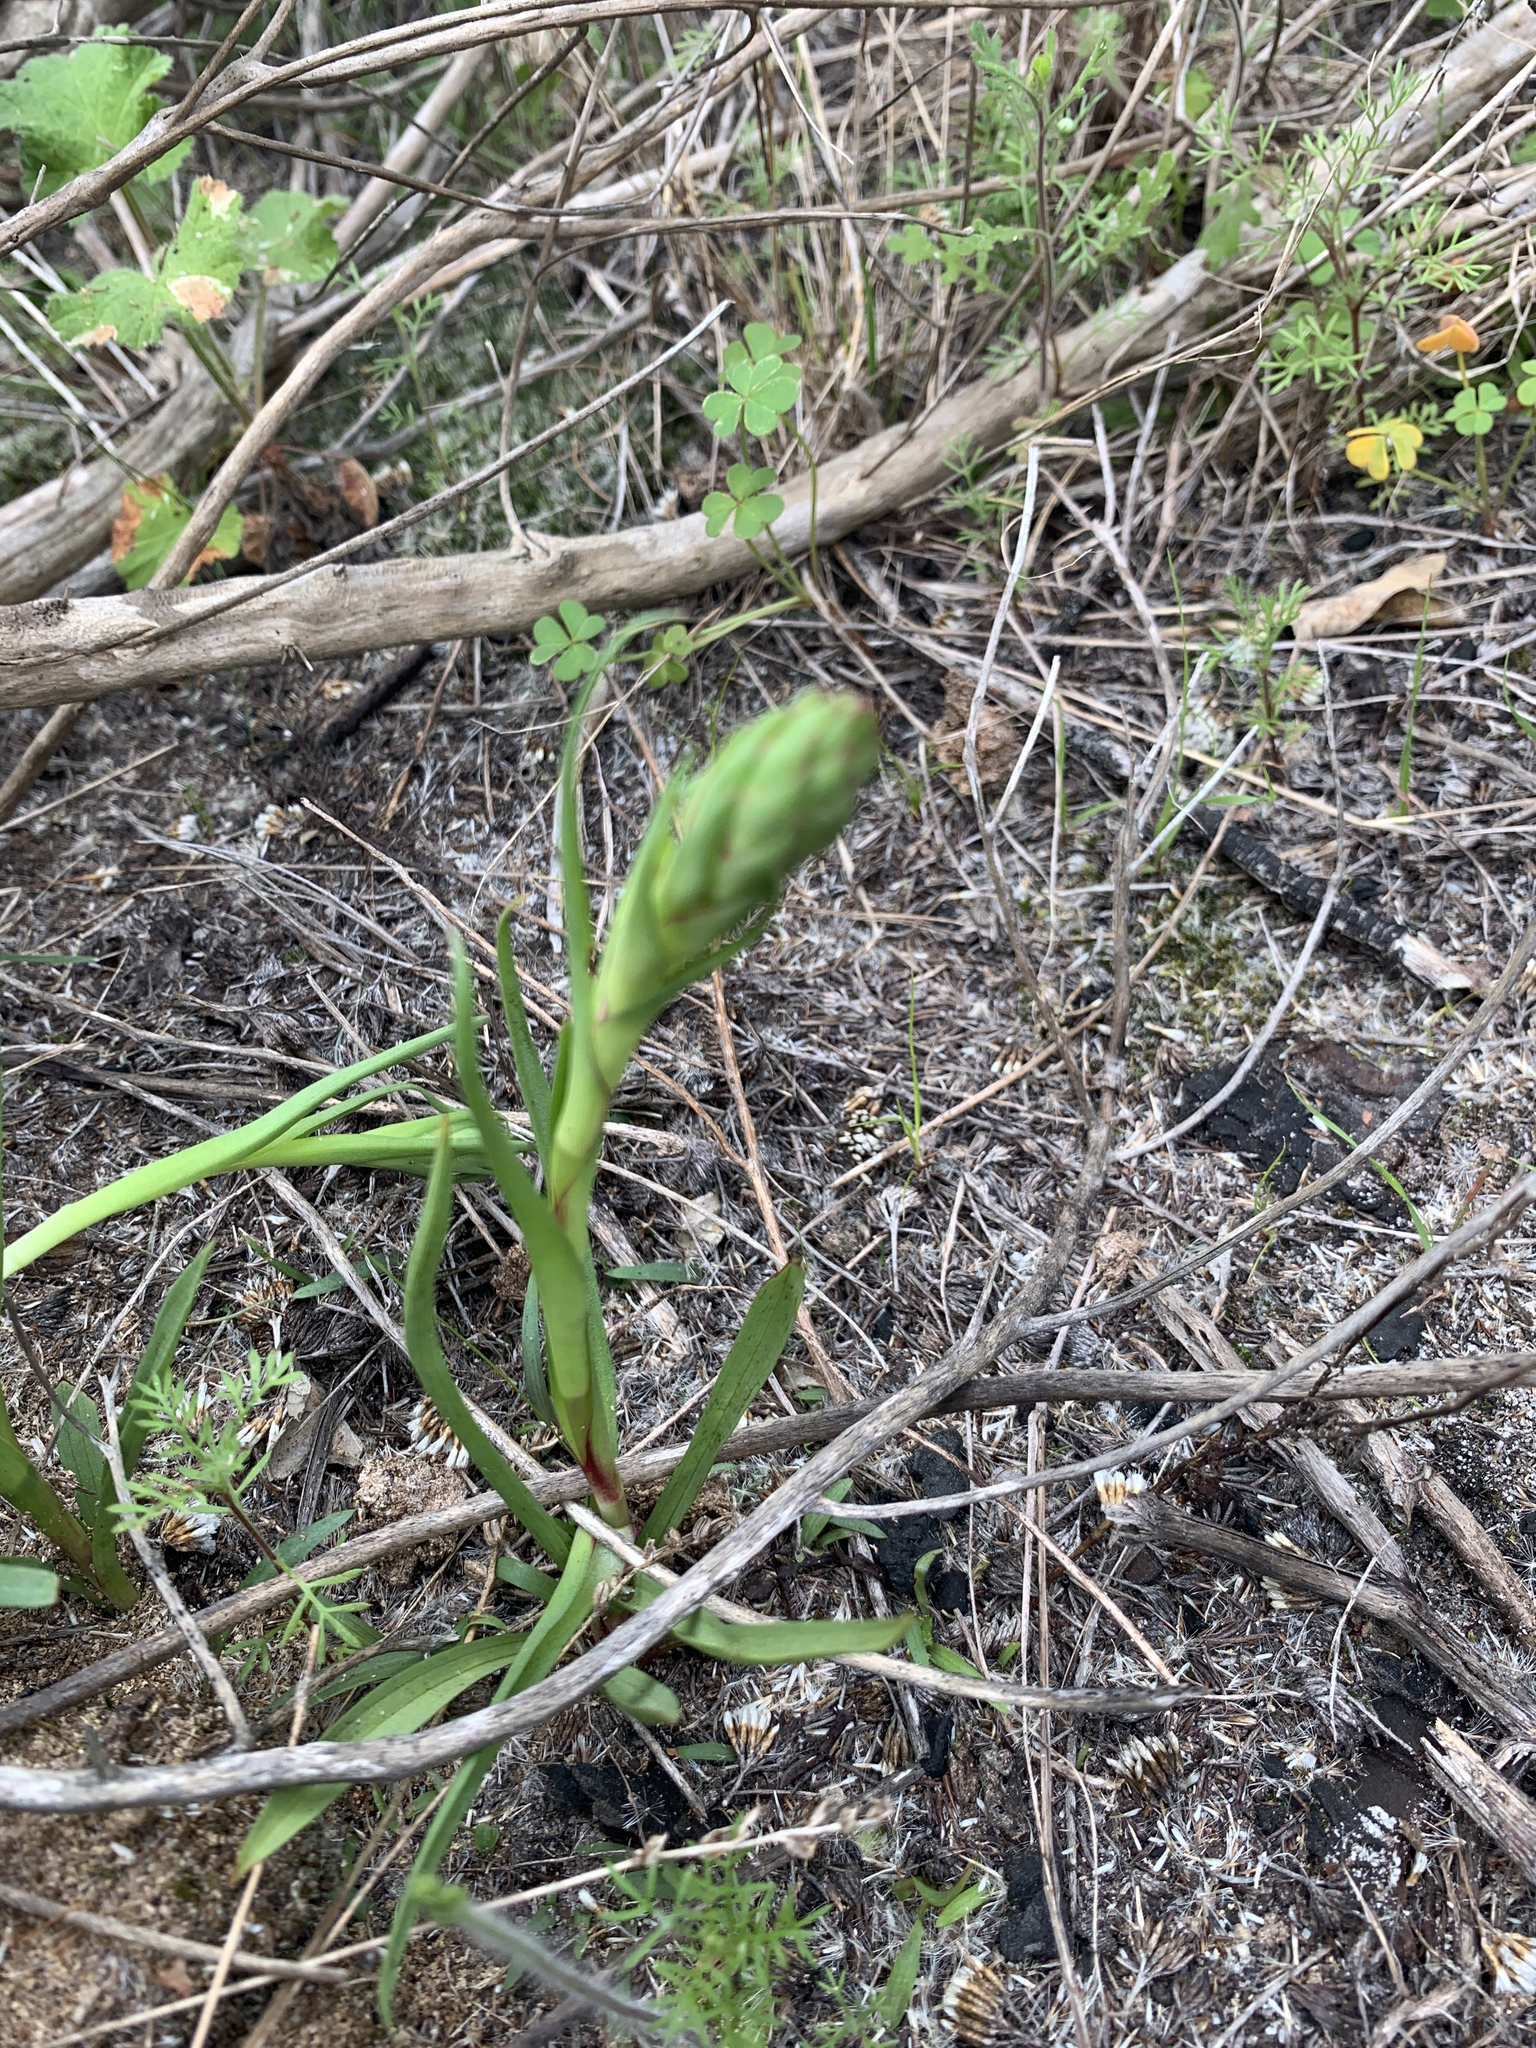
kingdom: Plantae
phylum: Tracheophyta
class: Liliopsida
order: Asparagales
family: Orchidaceae
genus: Disa
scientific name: Disa bracteata
